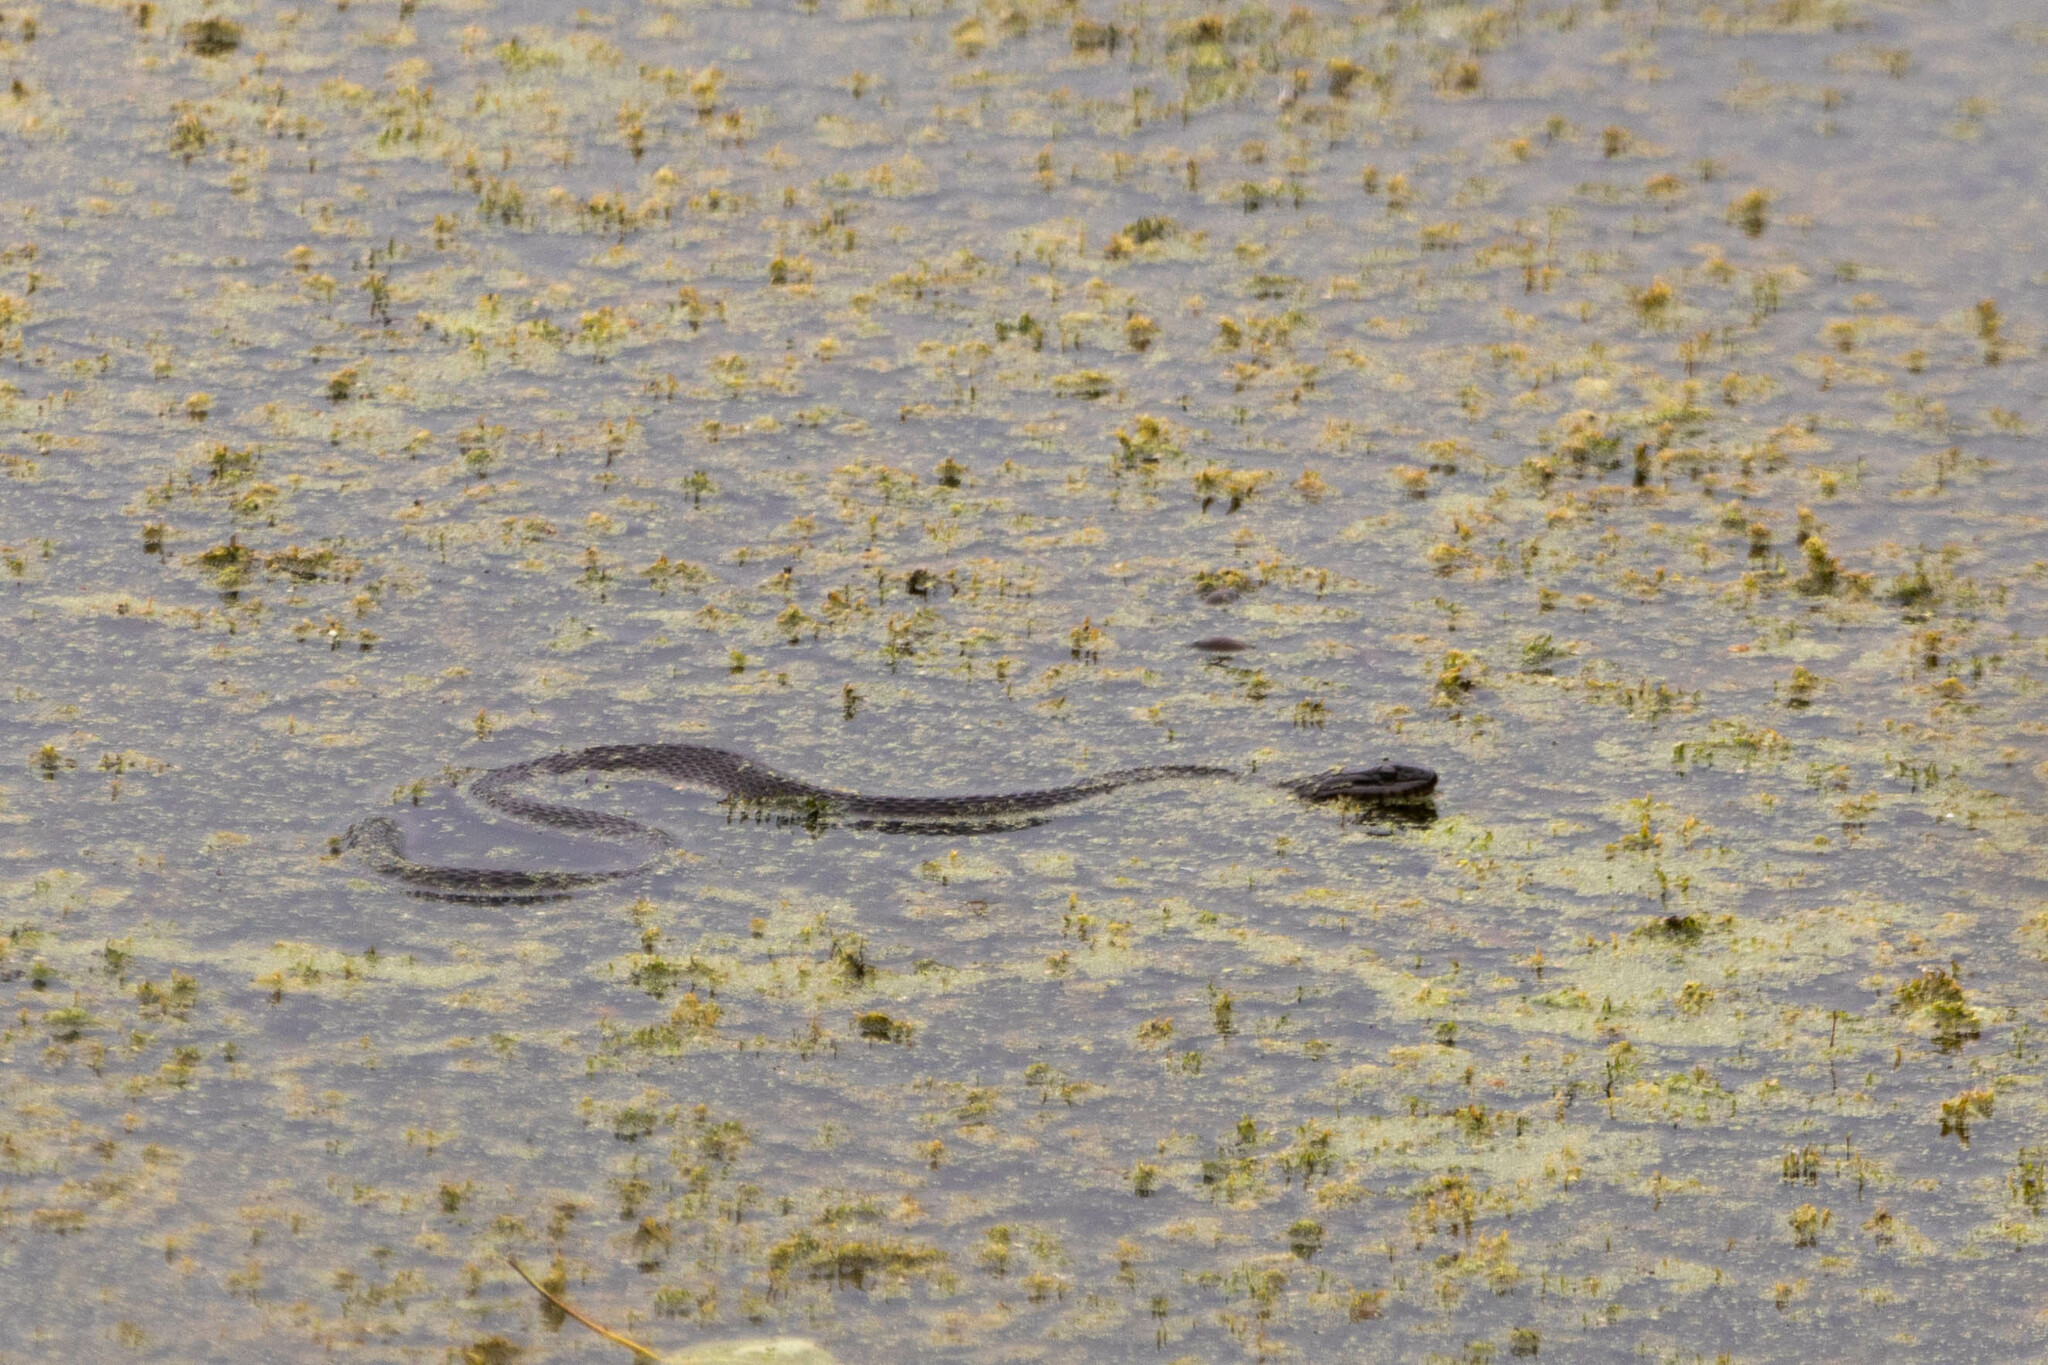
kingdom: Animalia
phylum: Chordata
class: Squamata
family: Colubridae
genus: Nerodia
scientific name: Nerodia sipedon
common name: Northern water snake
